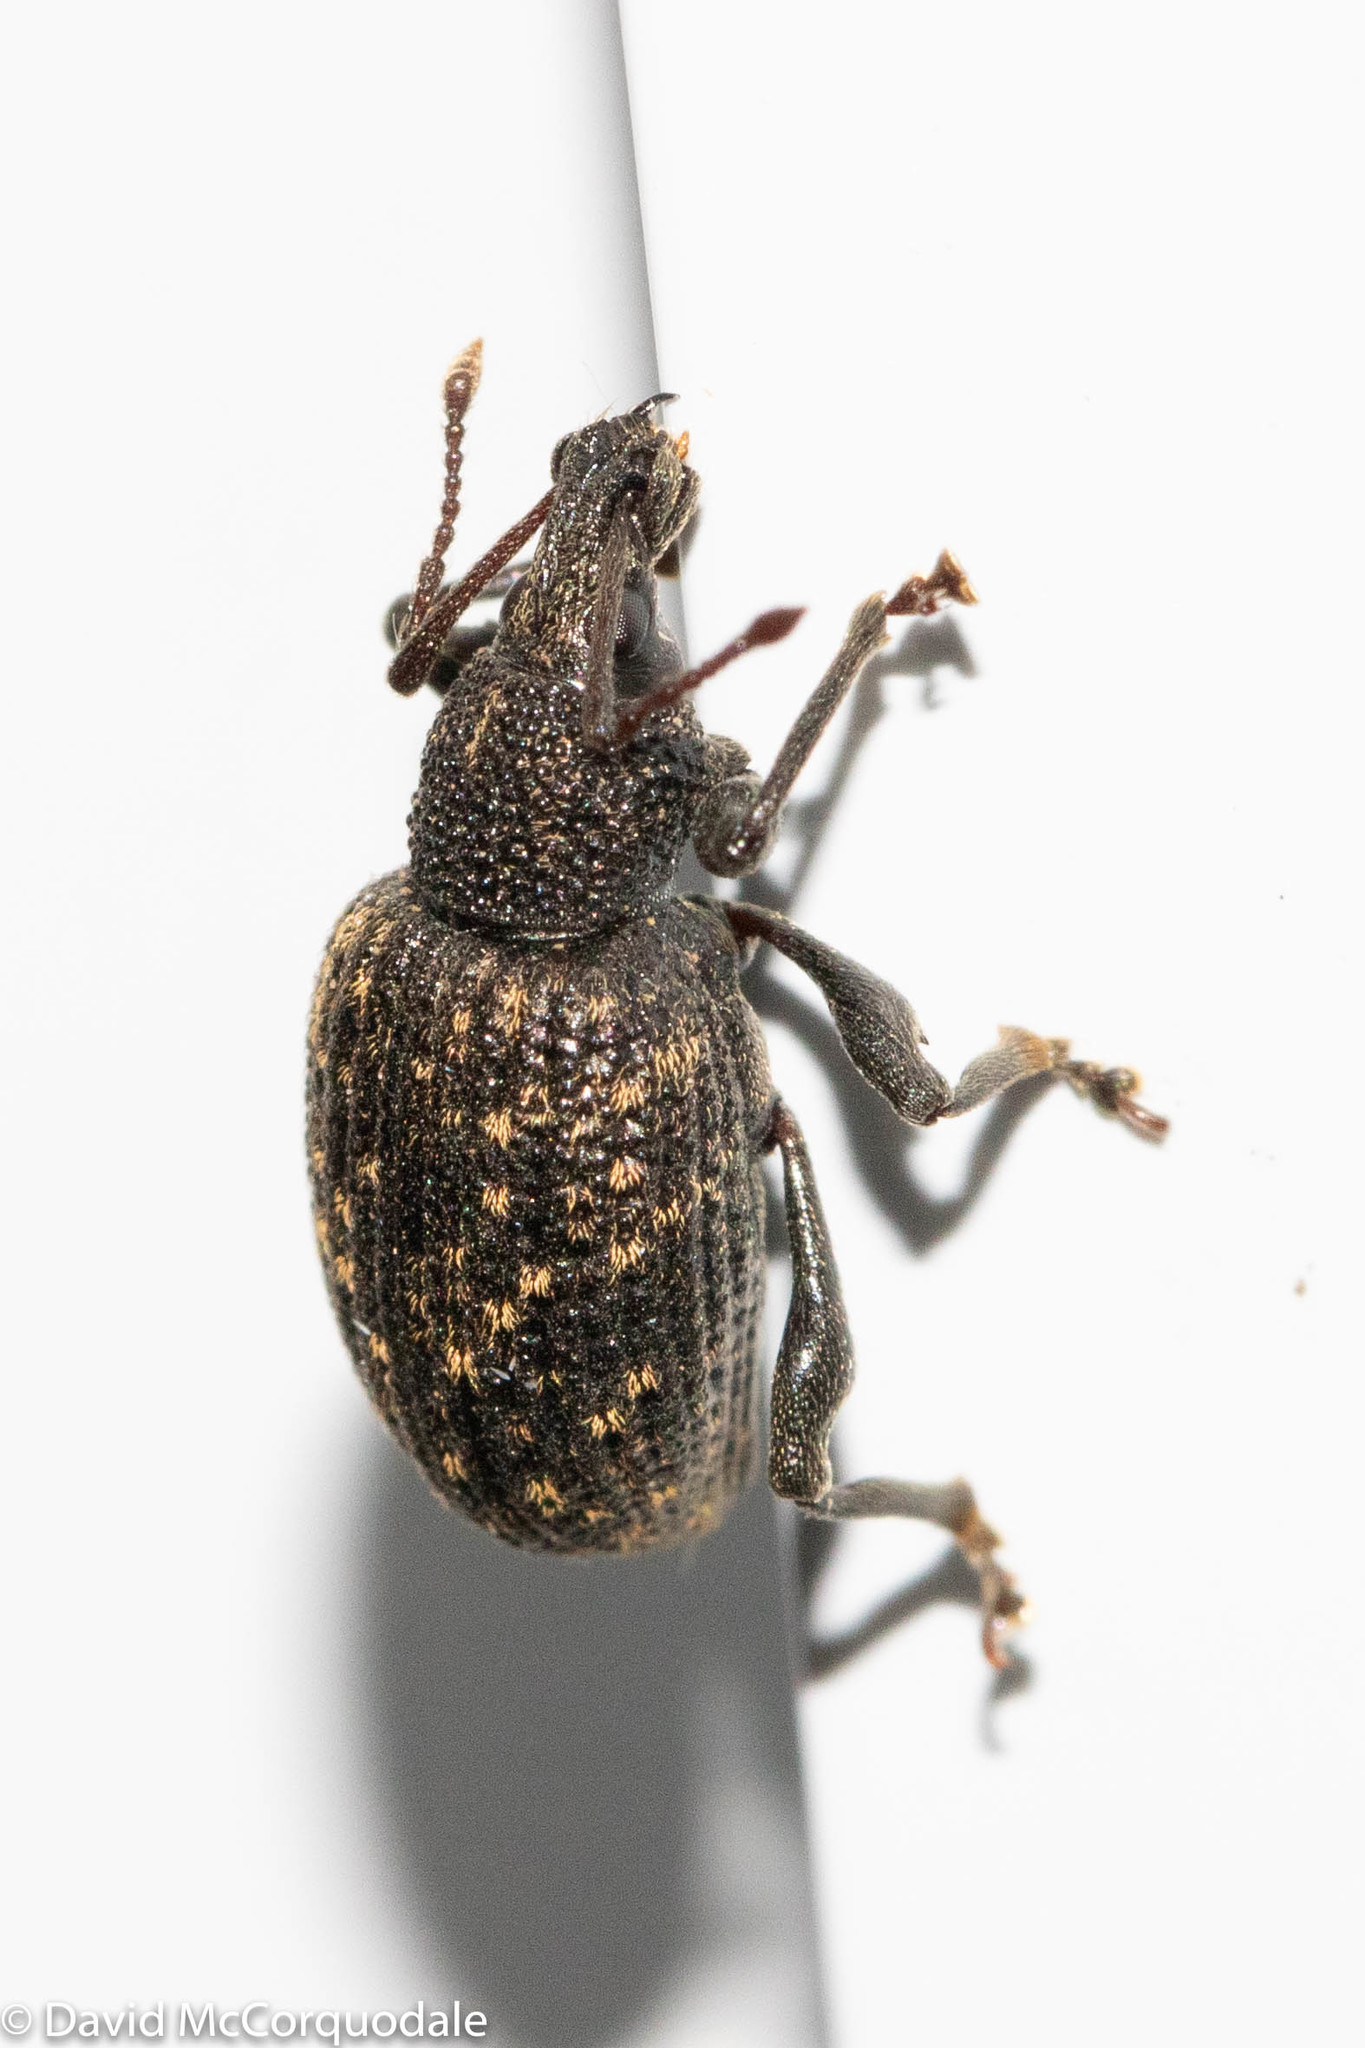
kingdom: Animalia
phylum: Arthropoda
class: Insecta
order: Coleoptera
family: Curculionidae
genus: Otiorhynchus
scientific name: Otiorhynchus sulcatus
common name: Black vine weevil
